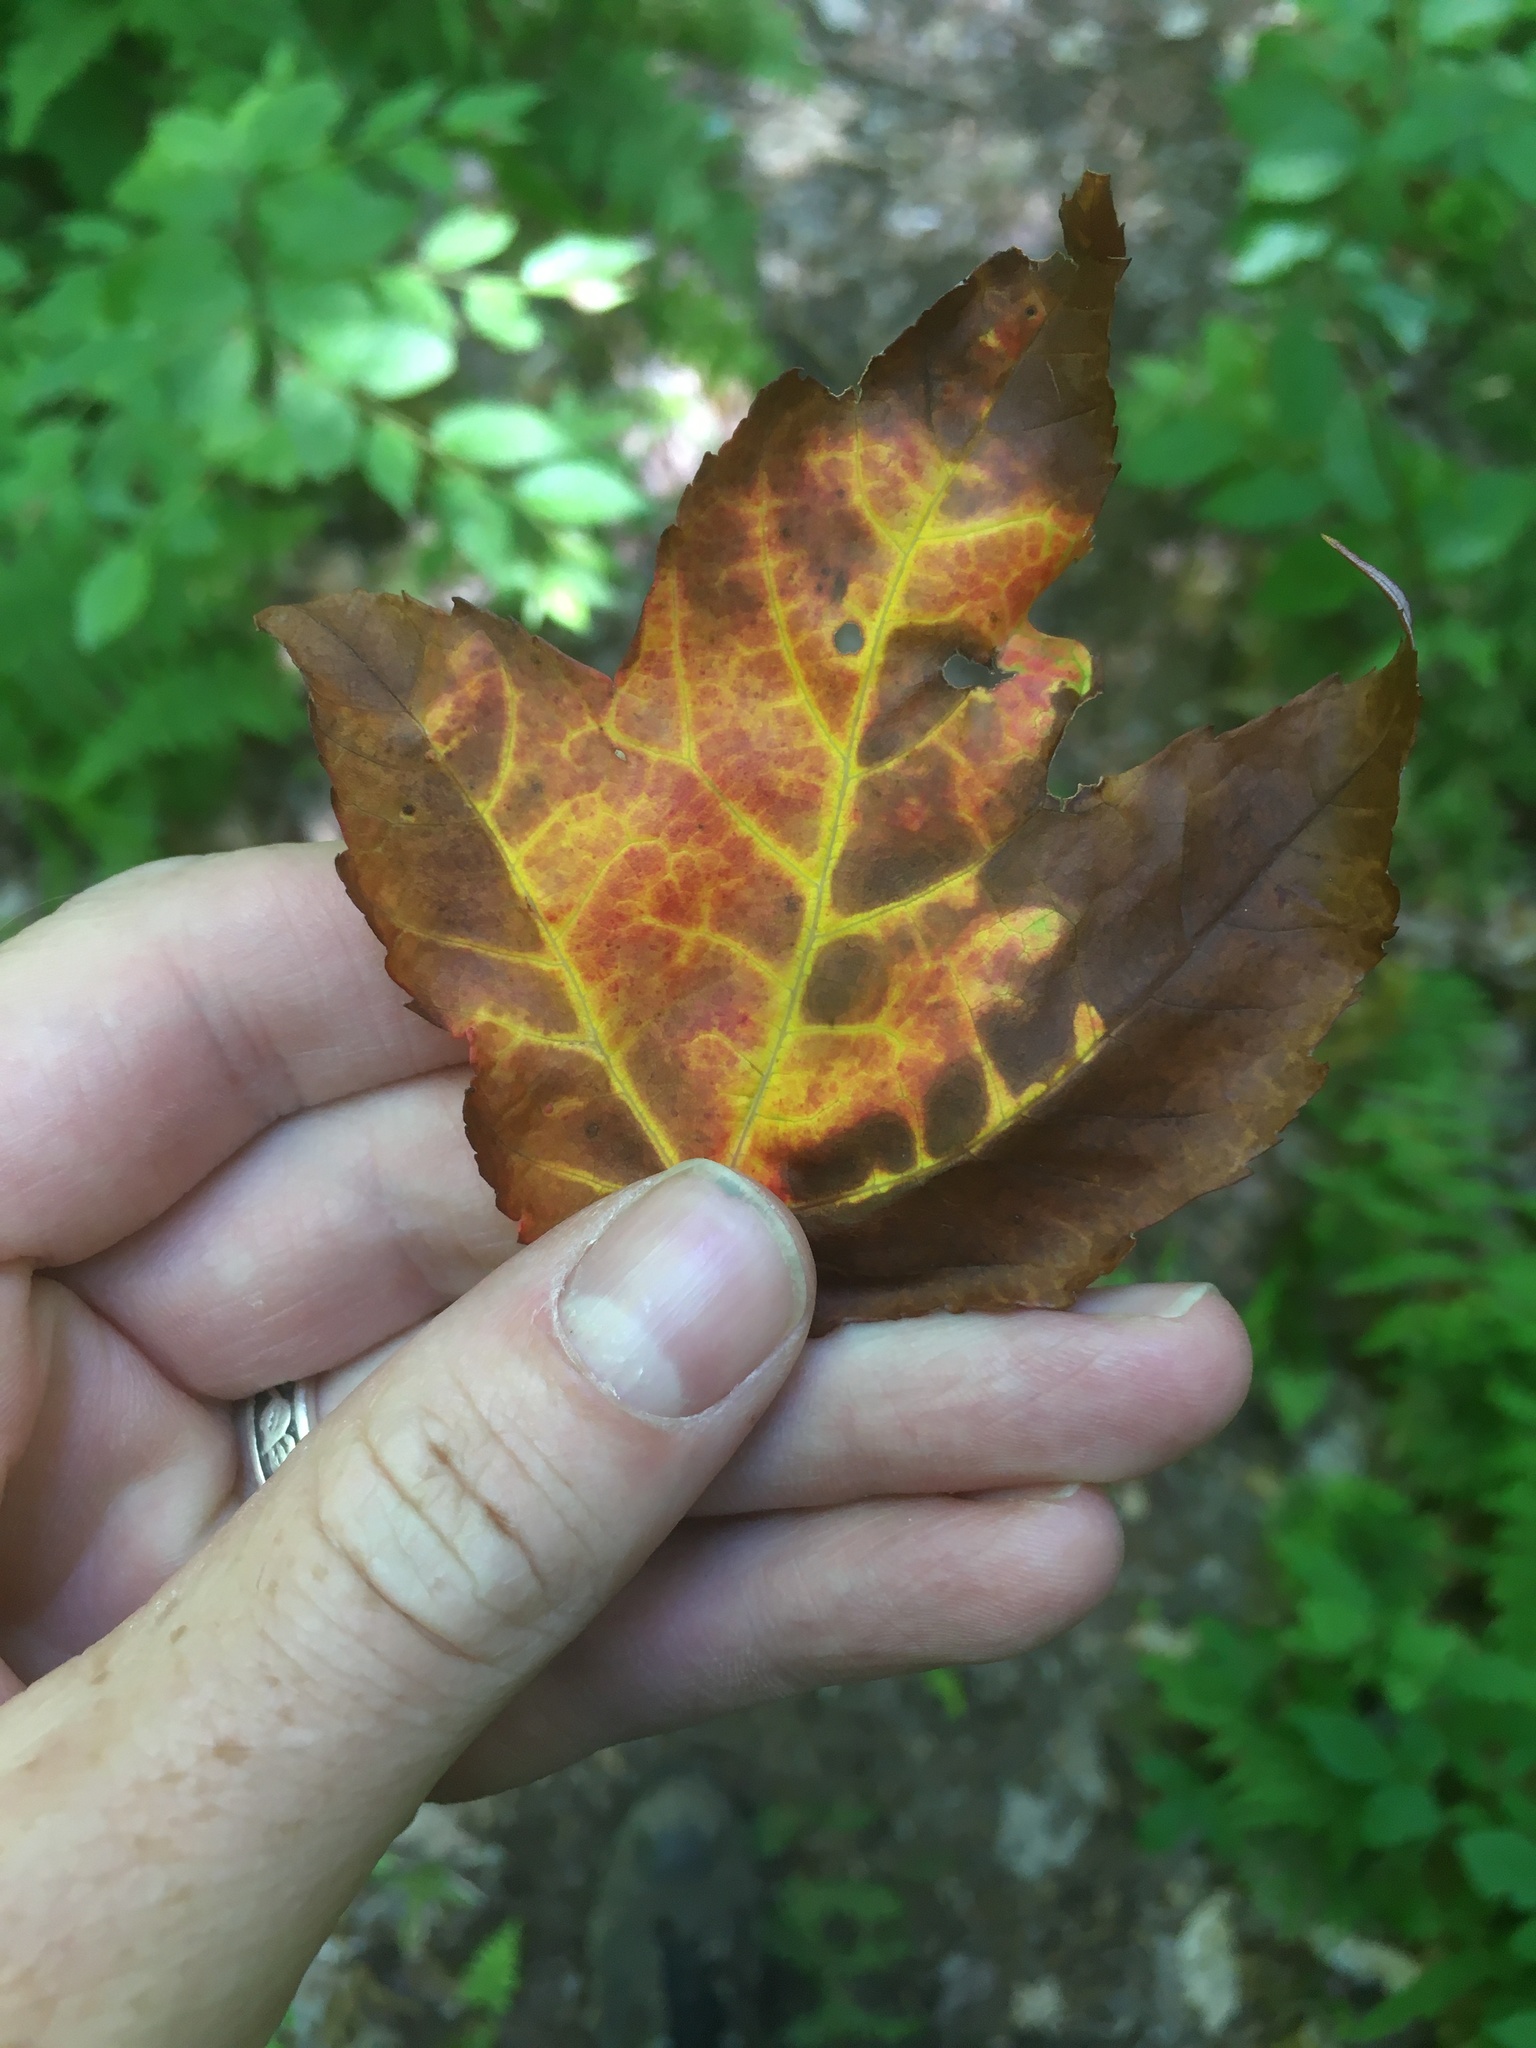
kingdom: Plantae
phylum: Tracheophyta
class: Magnoliopsida
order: Sapindales
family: Sapindaceae
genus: Acer
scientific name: Acer rubrum
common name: Red maple
